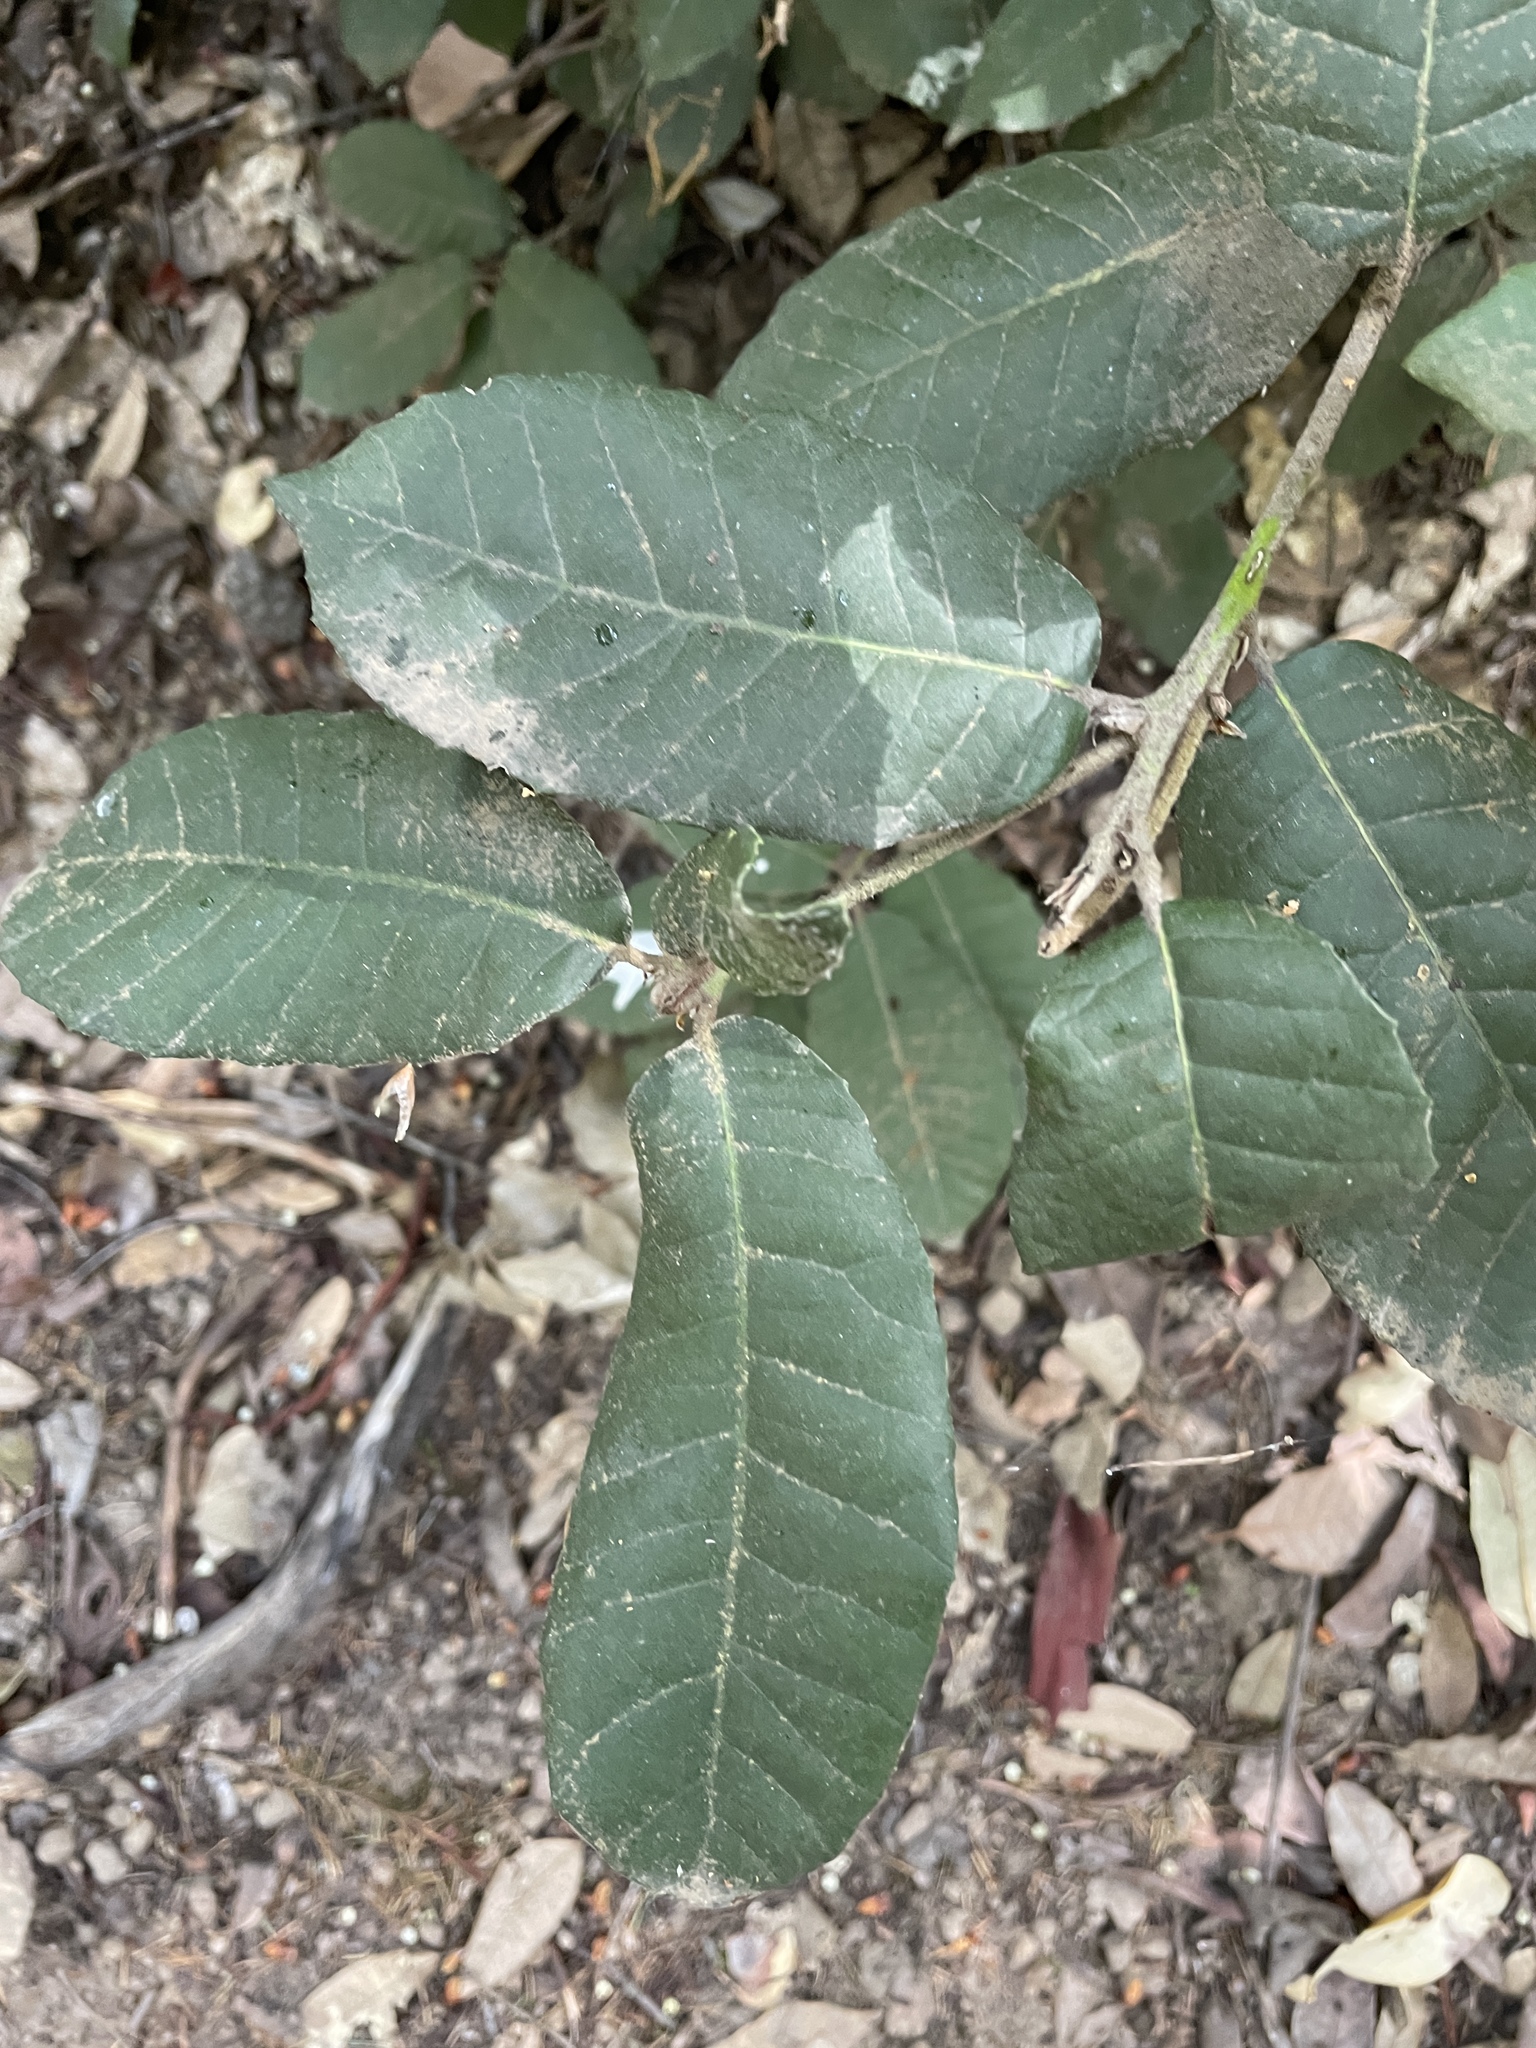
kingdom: Plantae
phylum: Tracheophyta
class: Magnoliopsida
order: Fagales
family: Fagaceae
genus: Notholithocarpus
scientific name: Notholithocarpus densiflorus
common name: Tan bark oak
